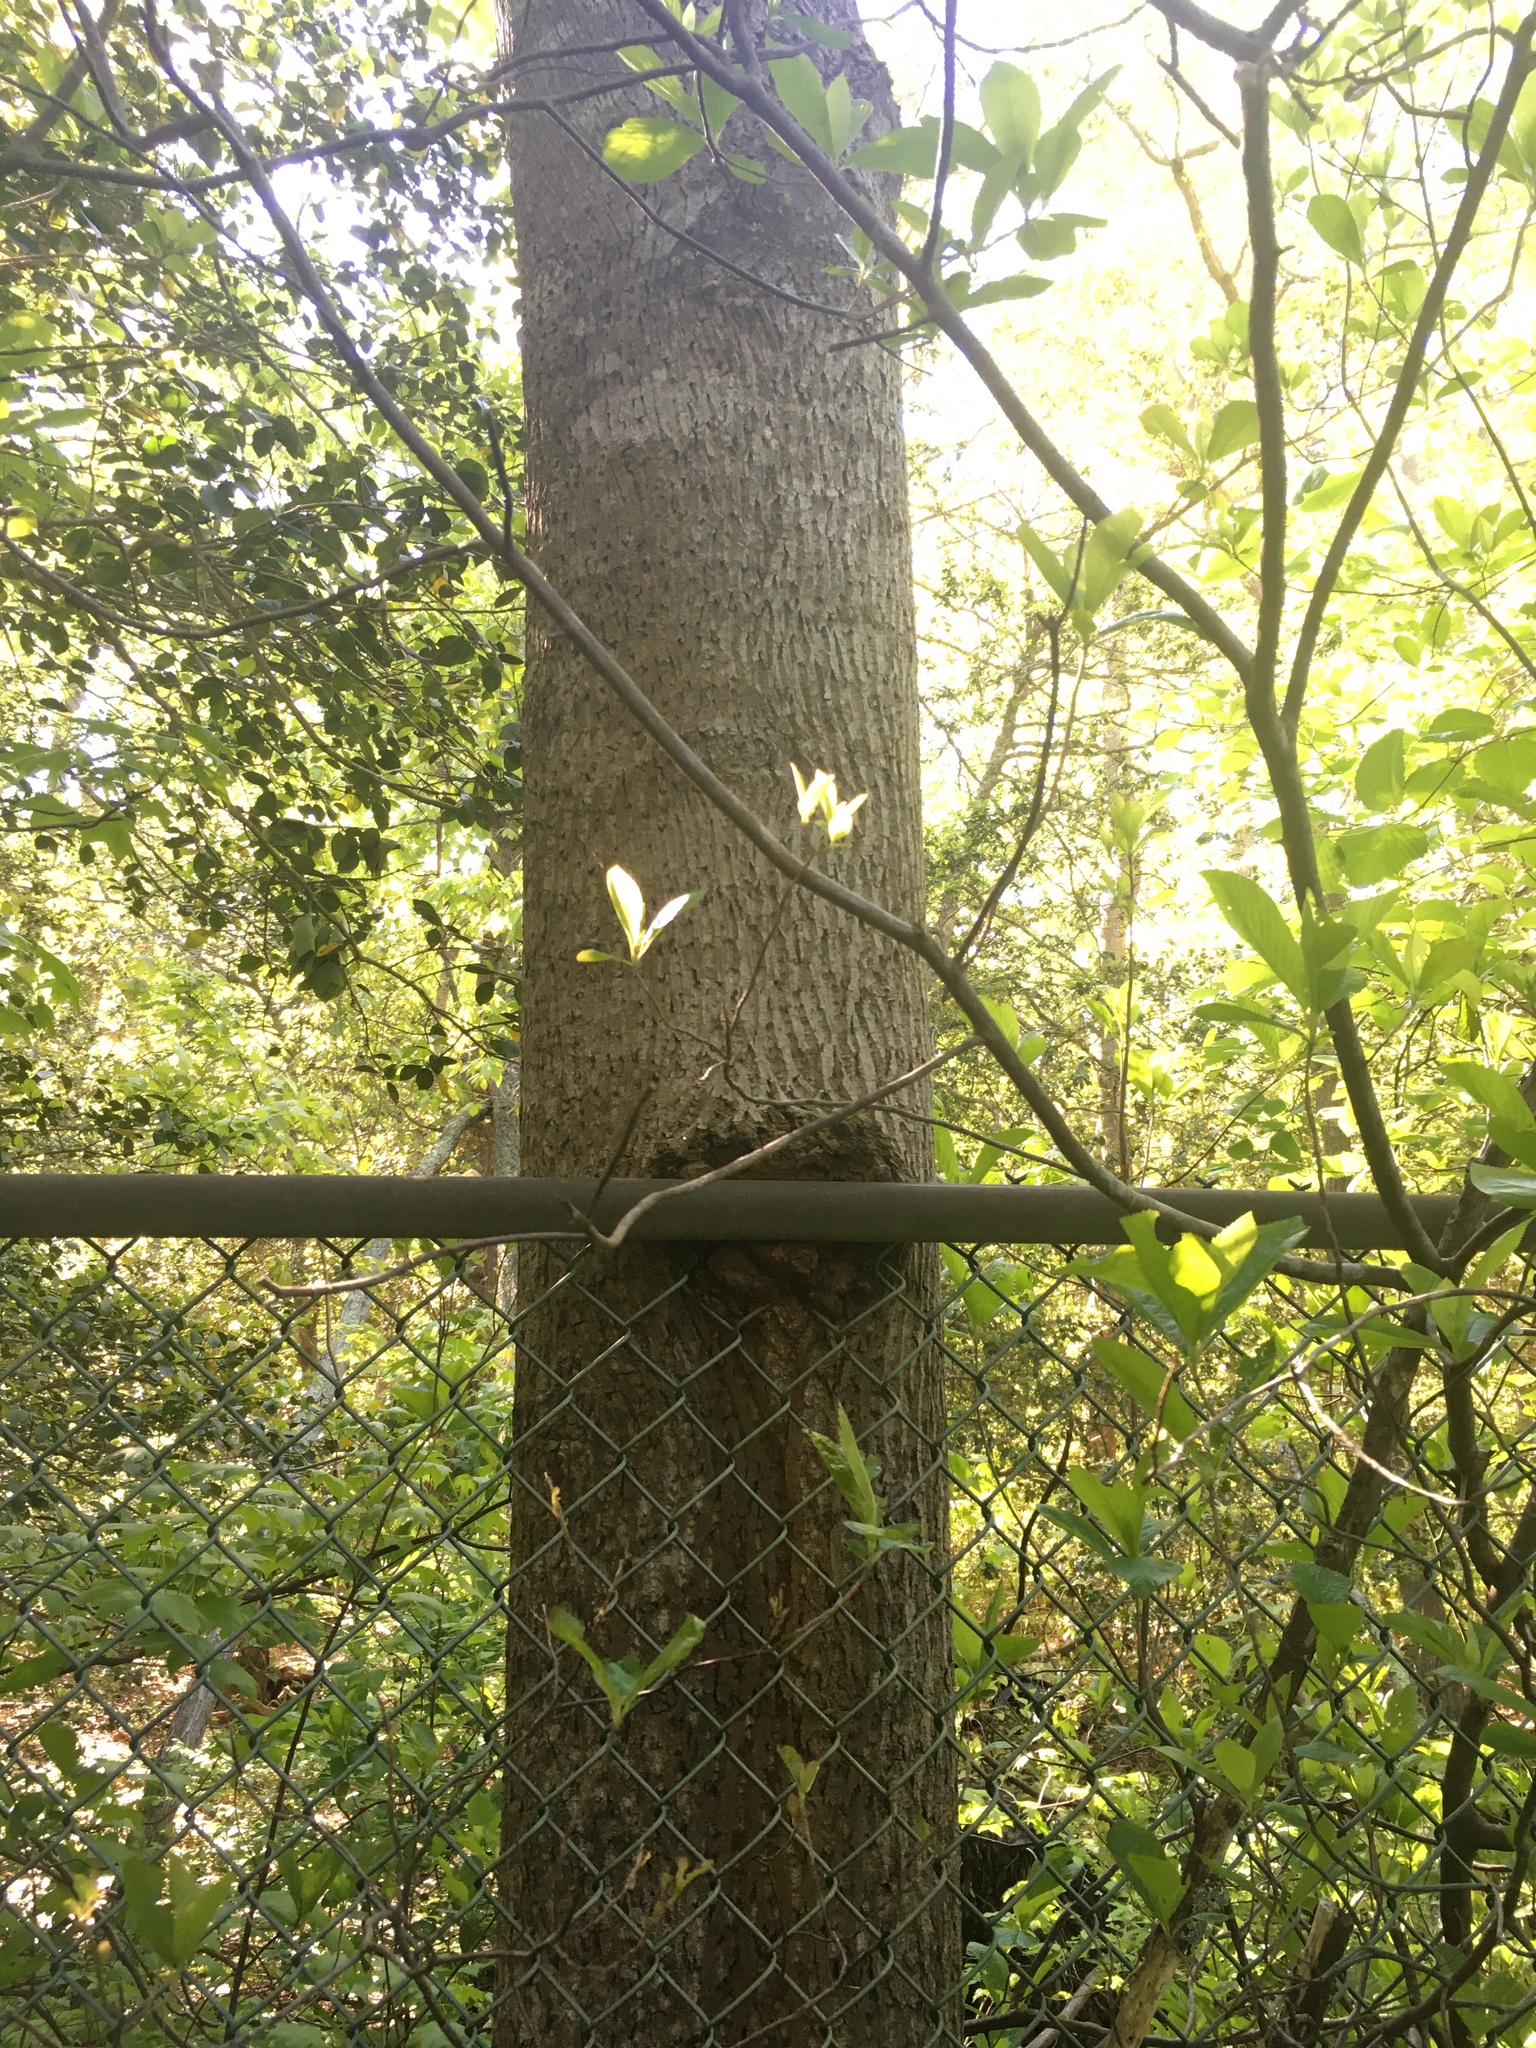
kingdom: Plantae
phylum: Tracheophyta
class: Magnoliopsida
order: Magnoliales
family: Magnoliaceae
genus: Liriodendron
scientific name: Liriodendron tulipifera
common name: Tulip tree
